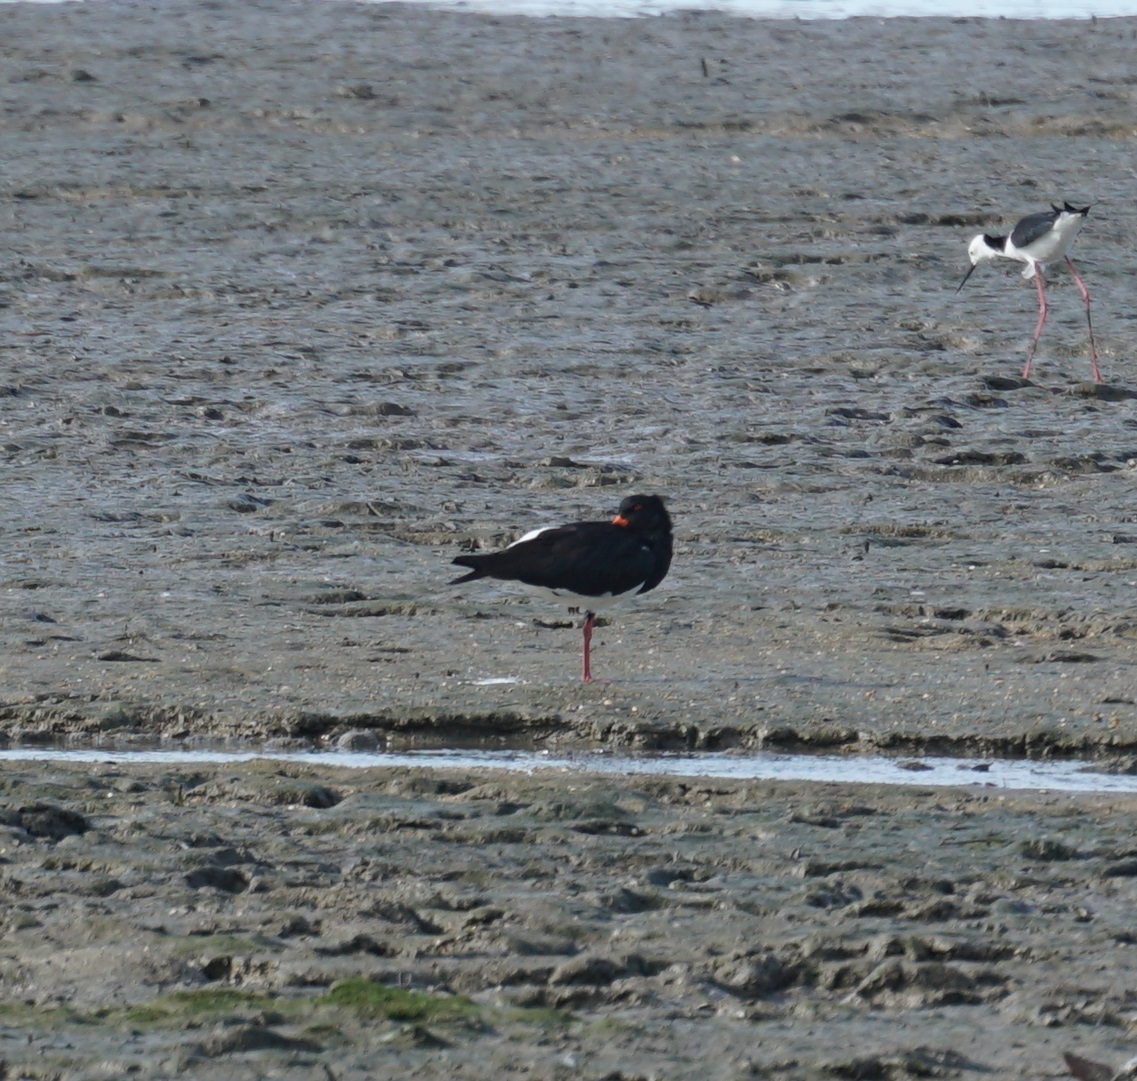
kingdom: Animalia
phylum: Chordata
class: Aves
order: Charadriiformes
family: Haematopodidae
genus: Haematopus
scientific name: Haematopus longirostris
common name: Pied oystercatcher
